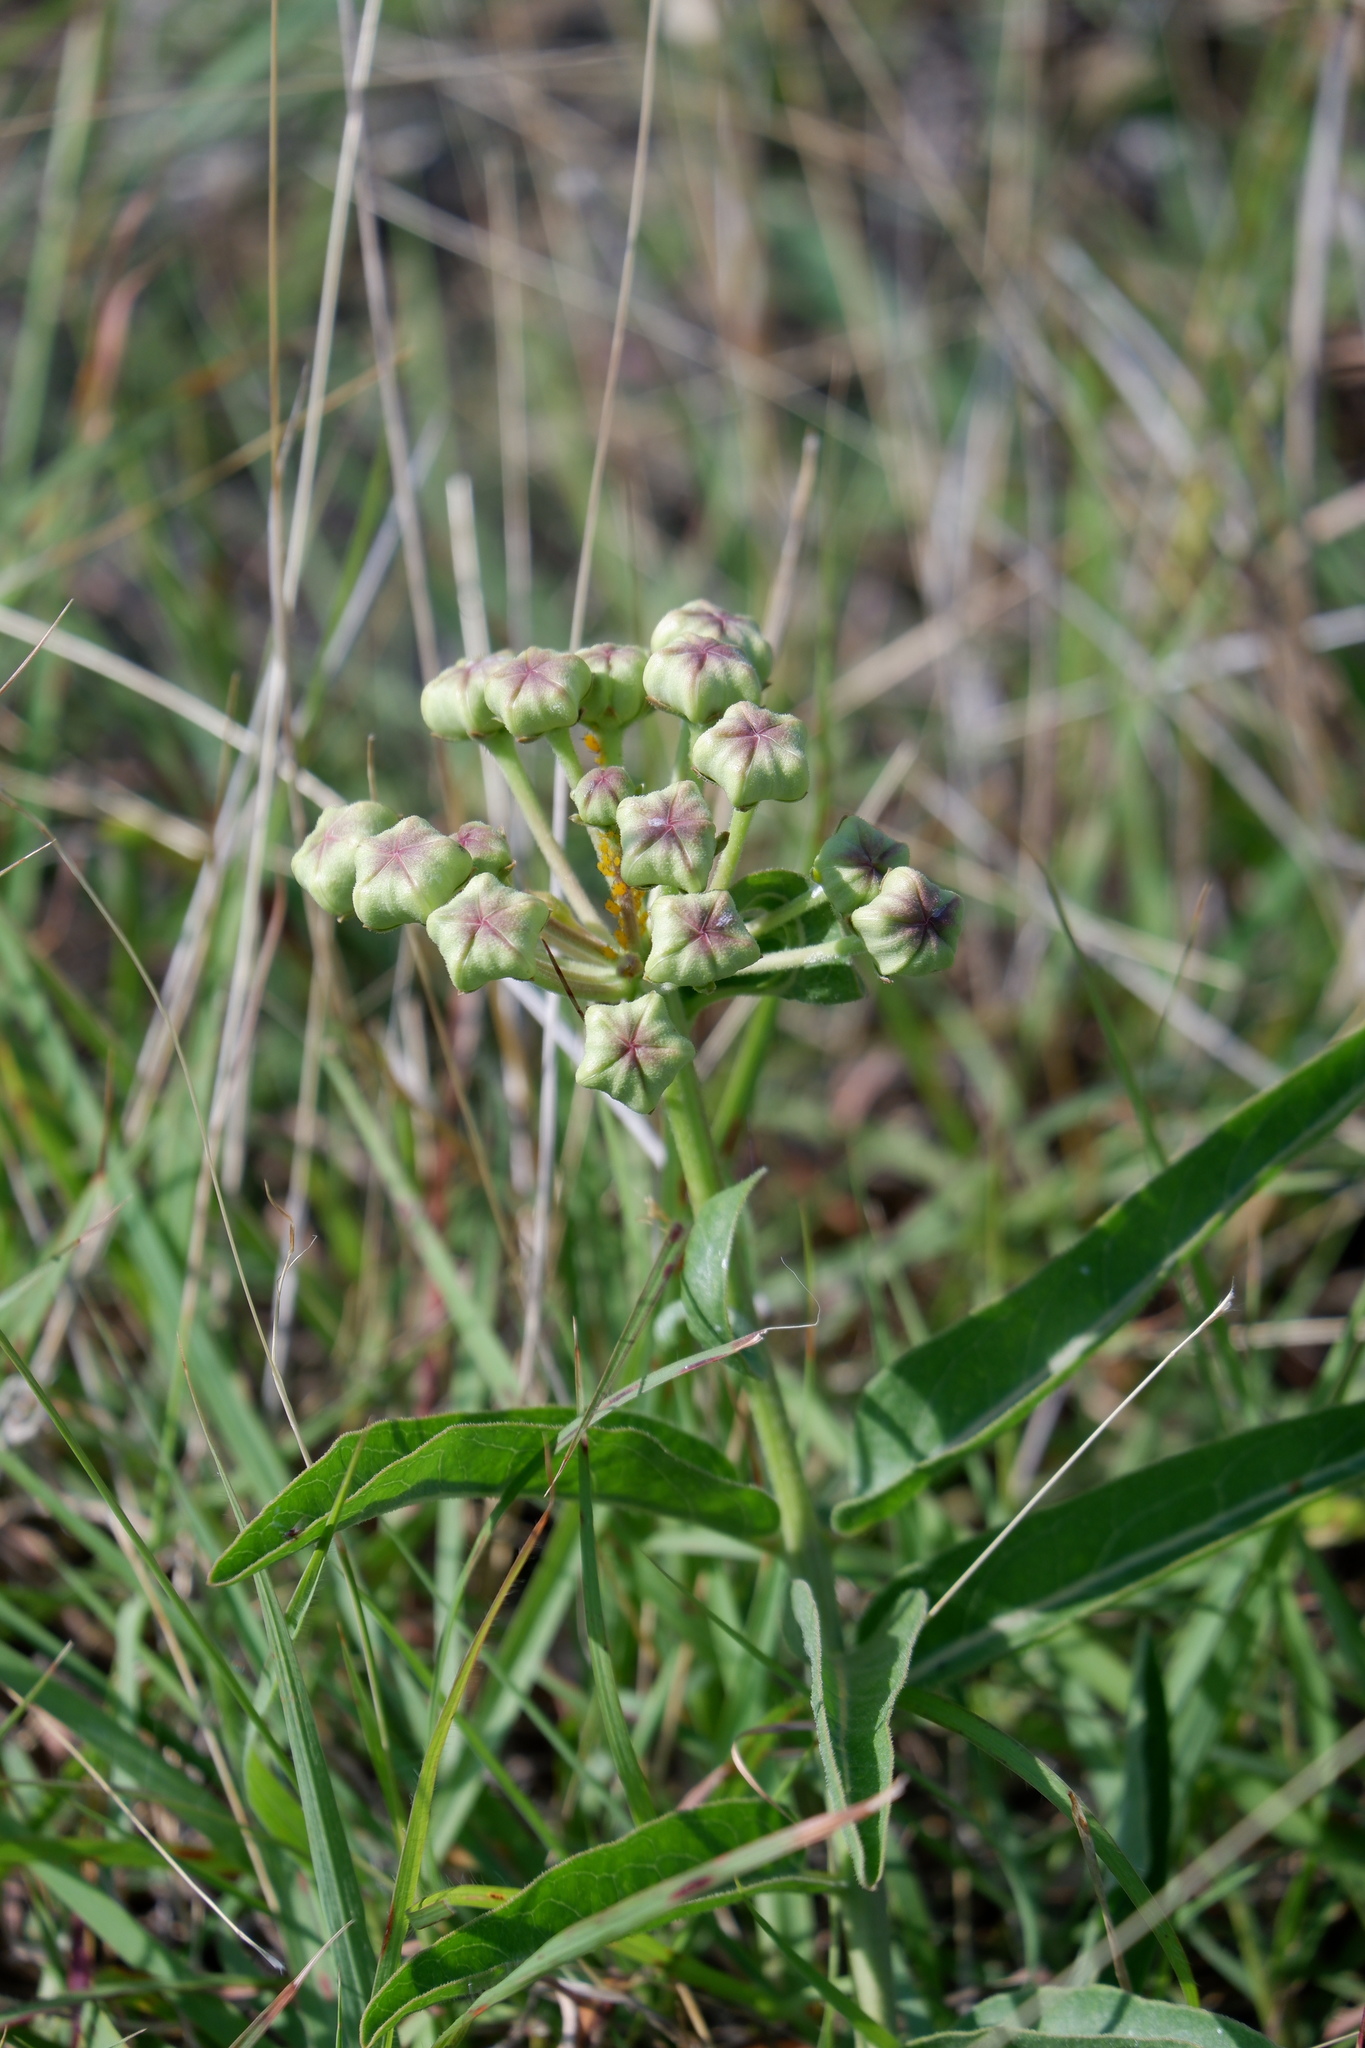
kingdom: Plantae
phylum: Tracheophyta
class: Magnoliopsida
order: Gentianales
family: Apocynaceae
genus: Asclepias
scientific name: Asclepias asperula
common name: Antelope horns
